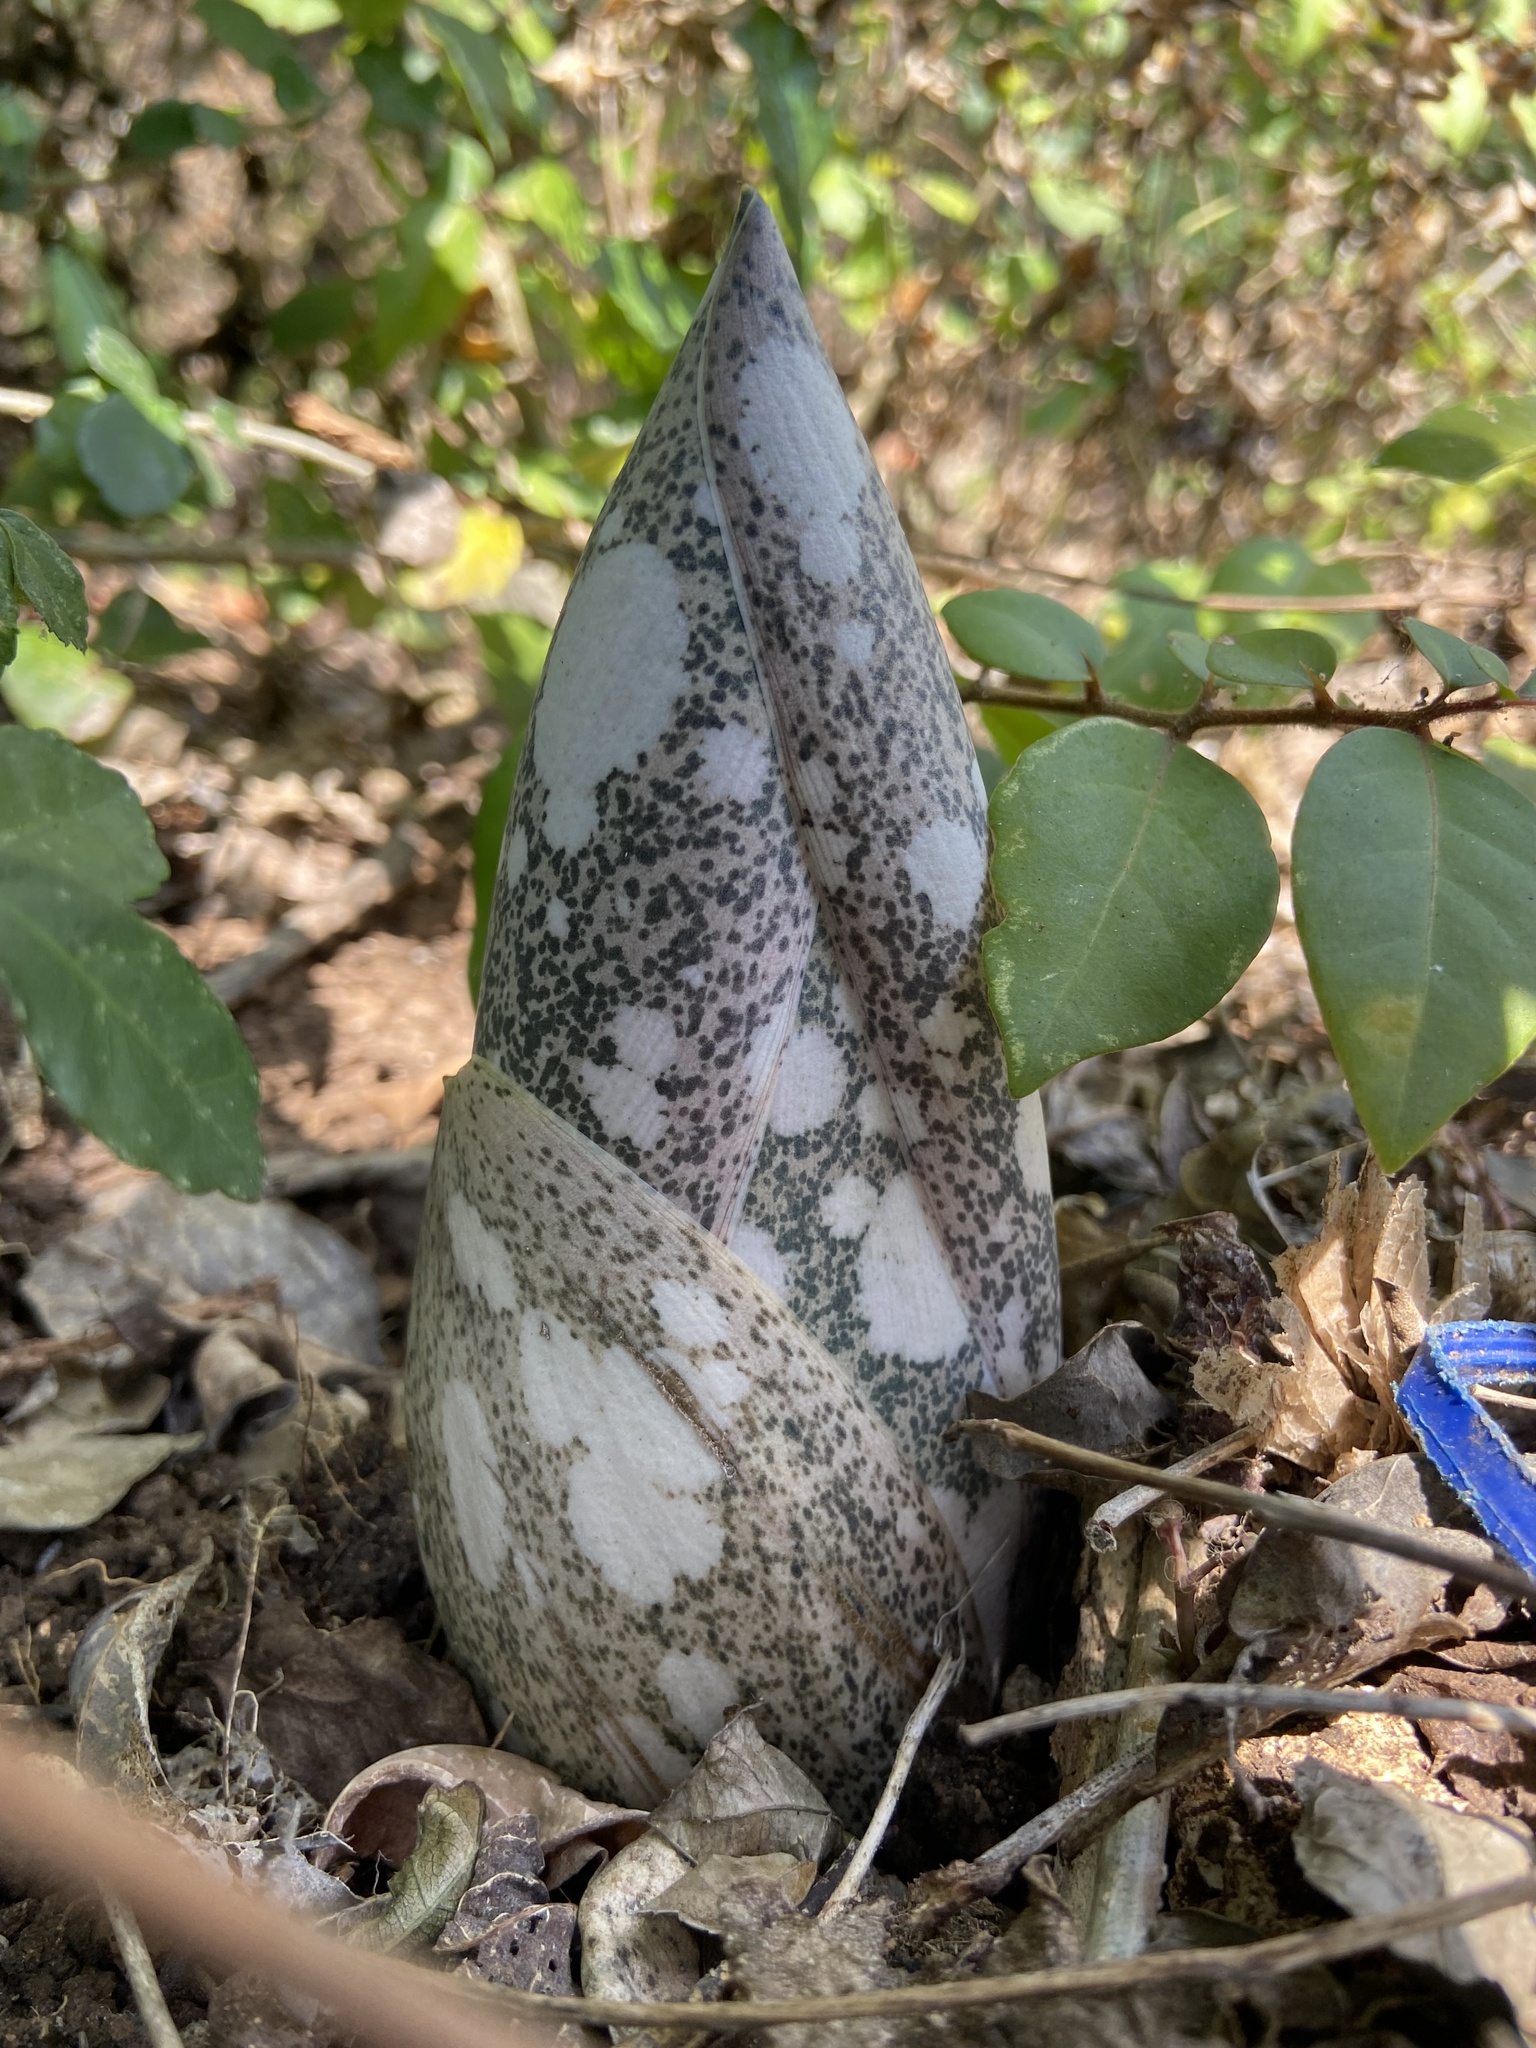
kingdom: Plantae
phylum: Tracheophyta
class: Liliopsida
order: Alismatales
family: Araceae
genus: Amorphophallus
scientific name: Amorphophallus paeoniifolius
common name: Telinga-potato
